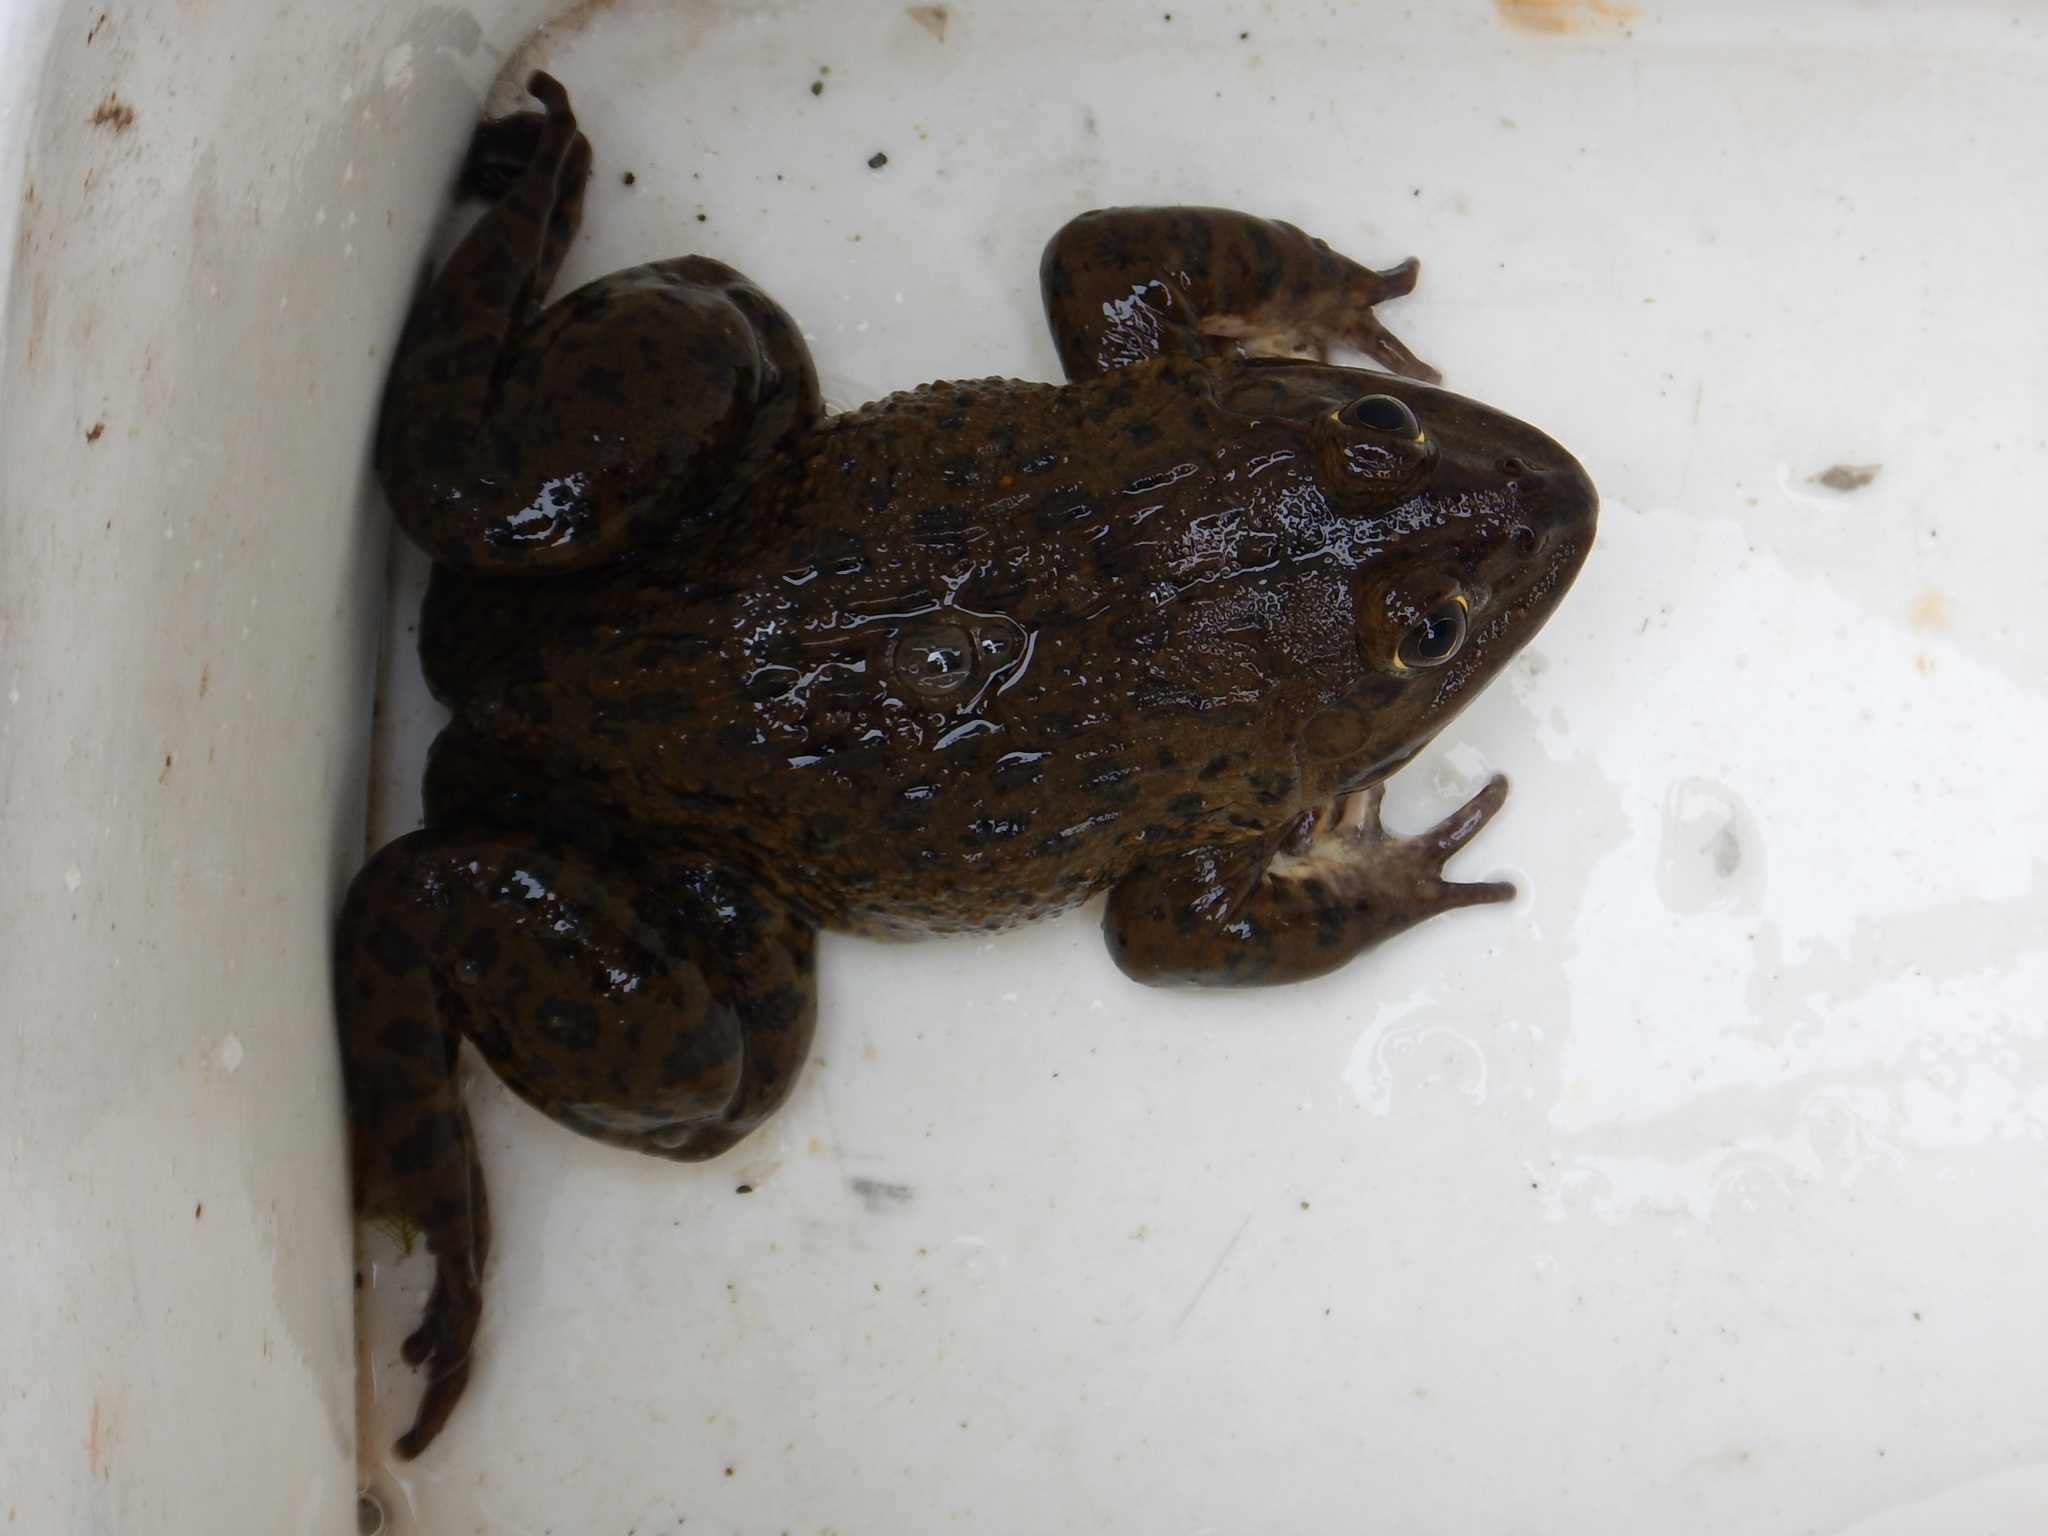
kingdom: Animalia
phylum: Chordata
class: Amphibia
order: Anura
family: Dicroglossidae
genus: Hoplobatrachus
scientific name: Hoplobatrachus rugulosus
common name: Chinese edible frog
